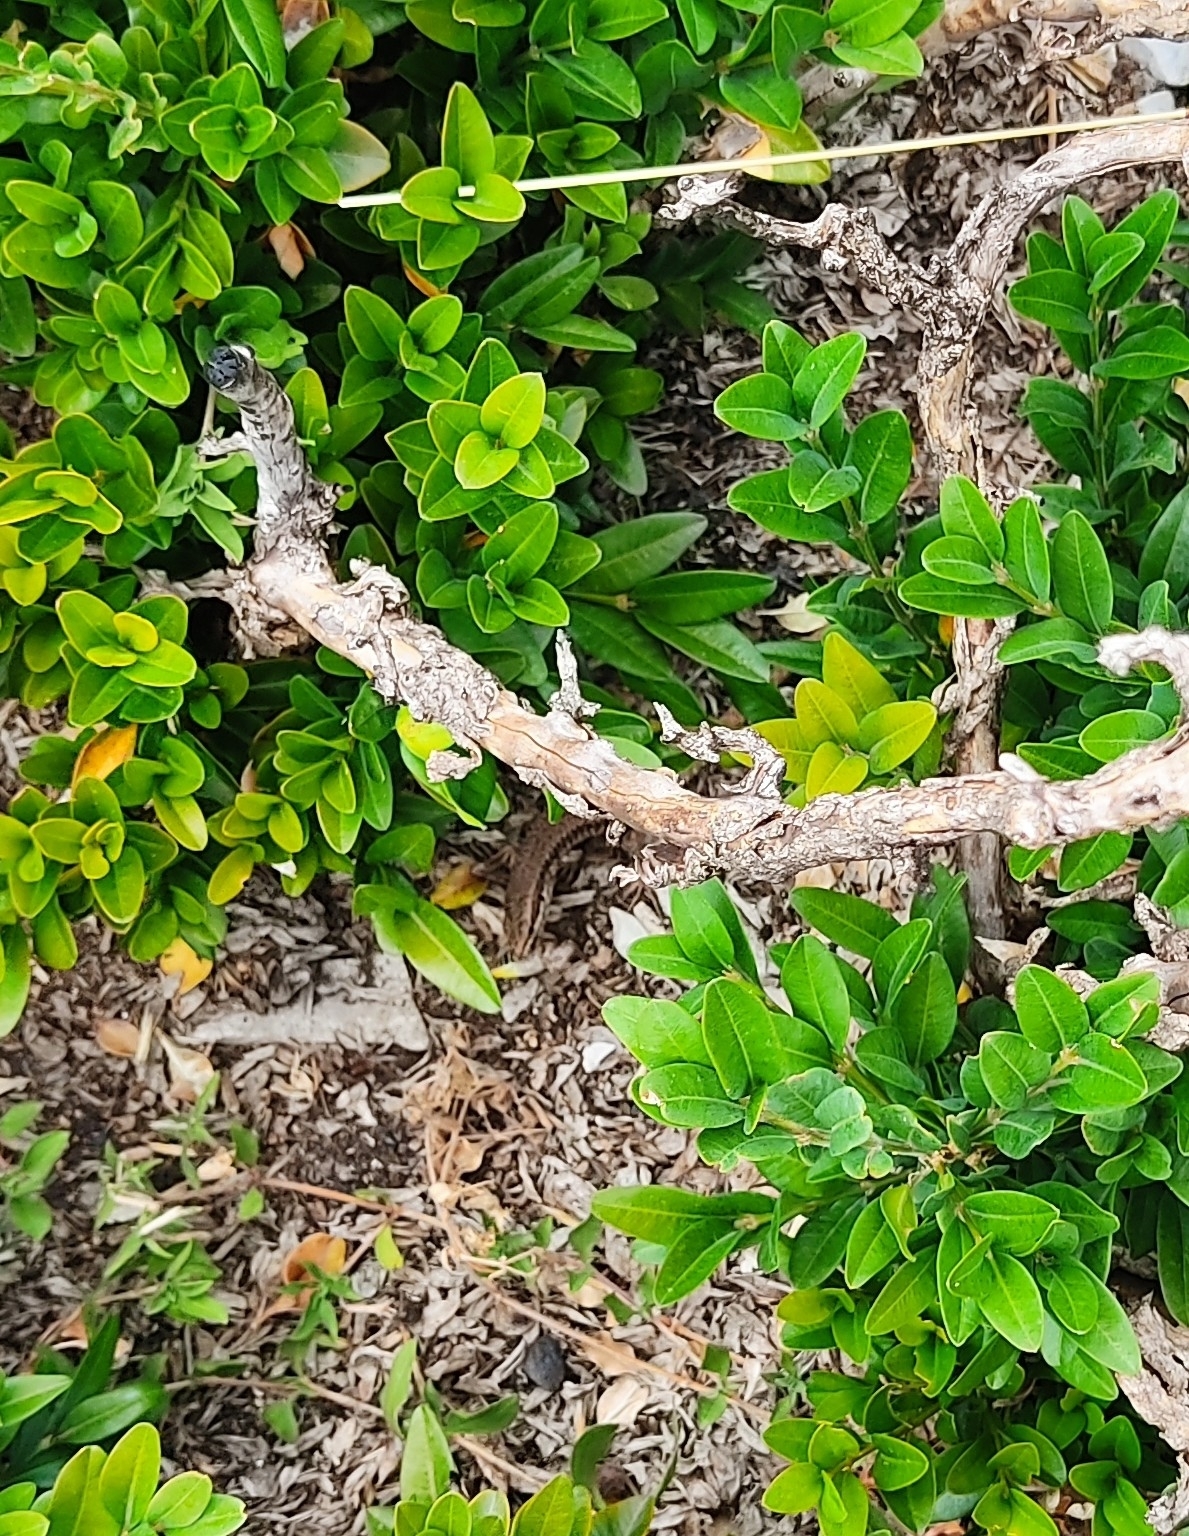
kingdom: Animalia
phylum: Chordata
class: Squamata
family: Lacertidae
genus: Podarcis
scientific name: Podarcis muralis
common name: Common wall lizard
